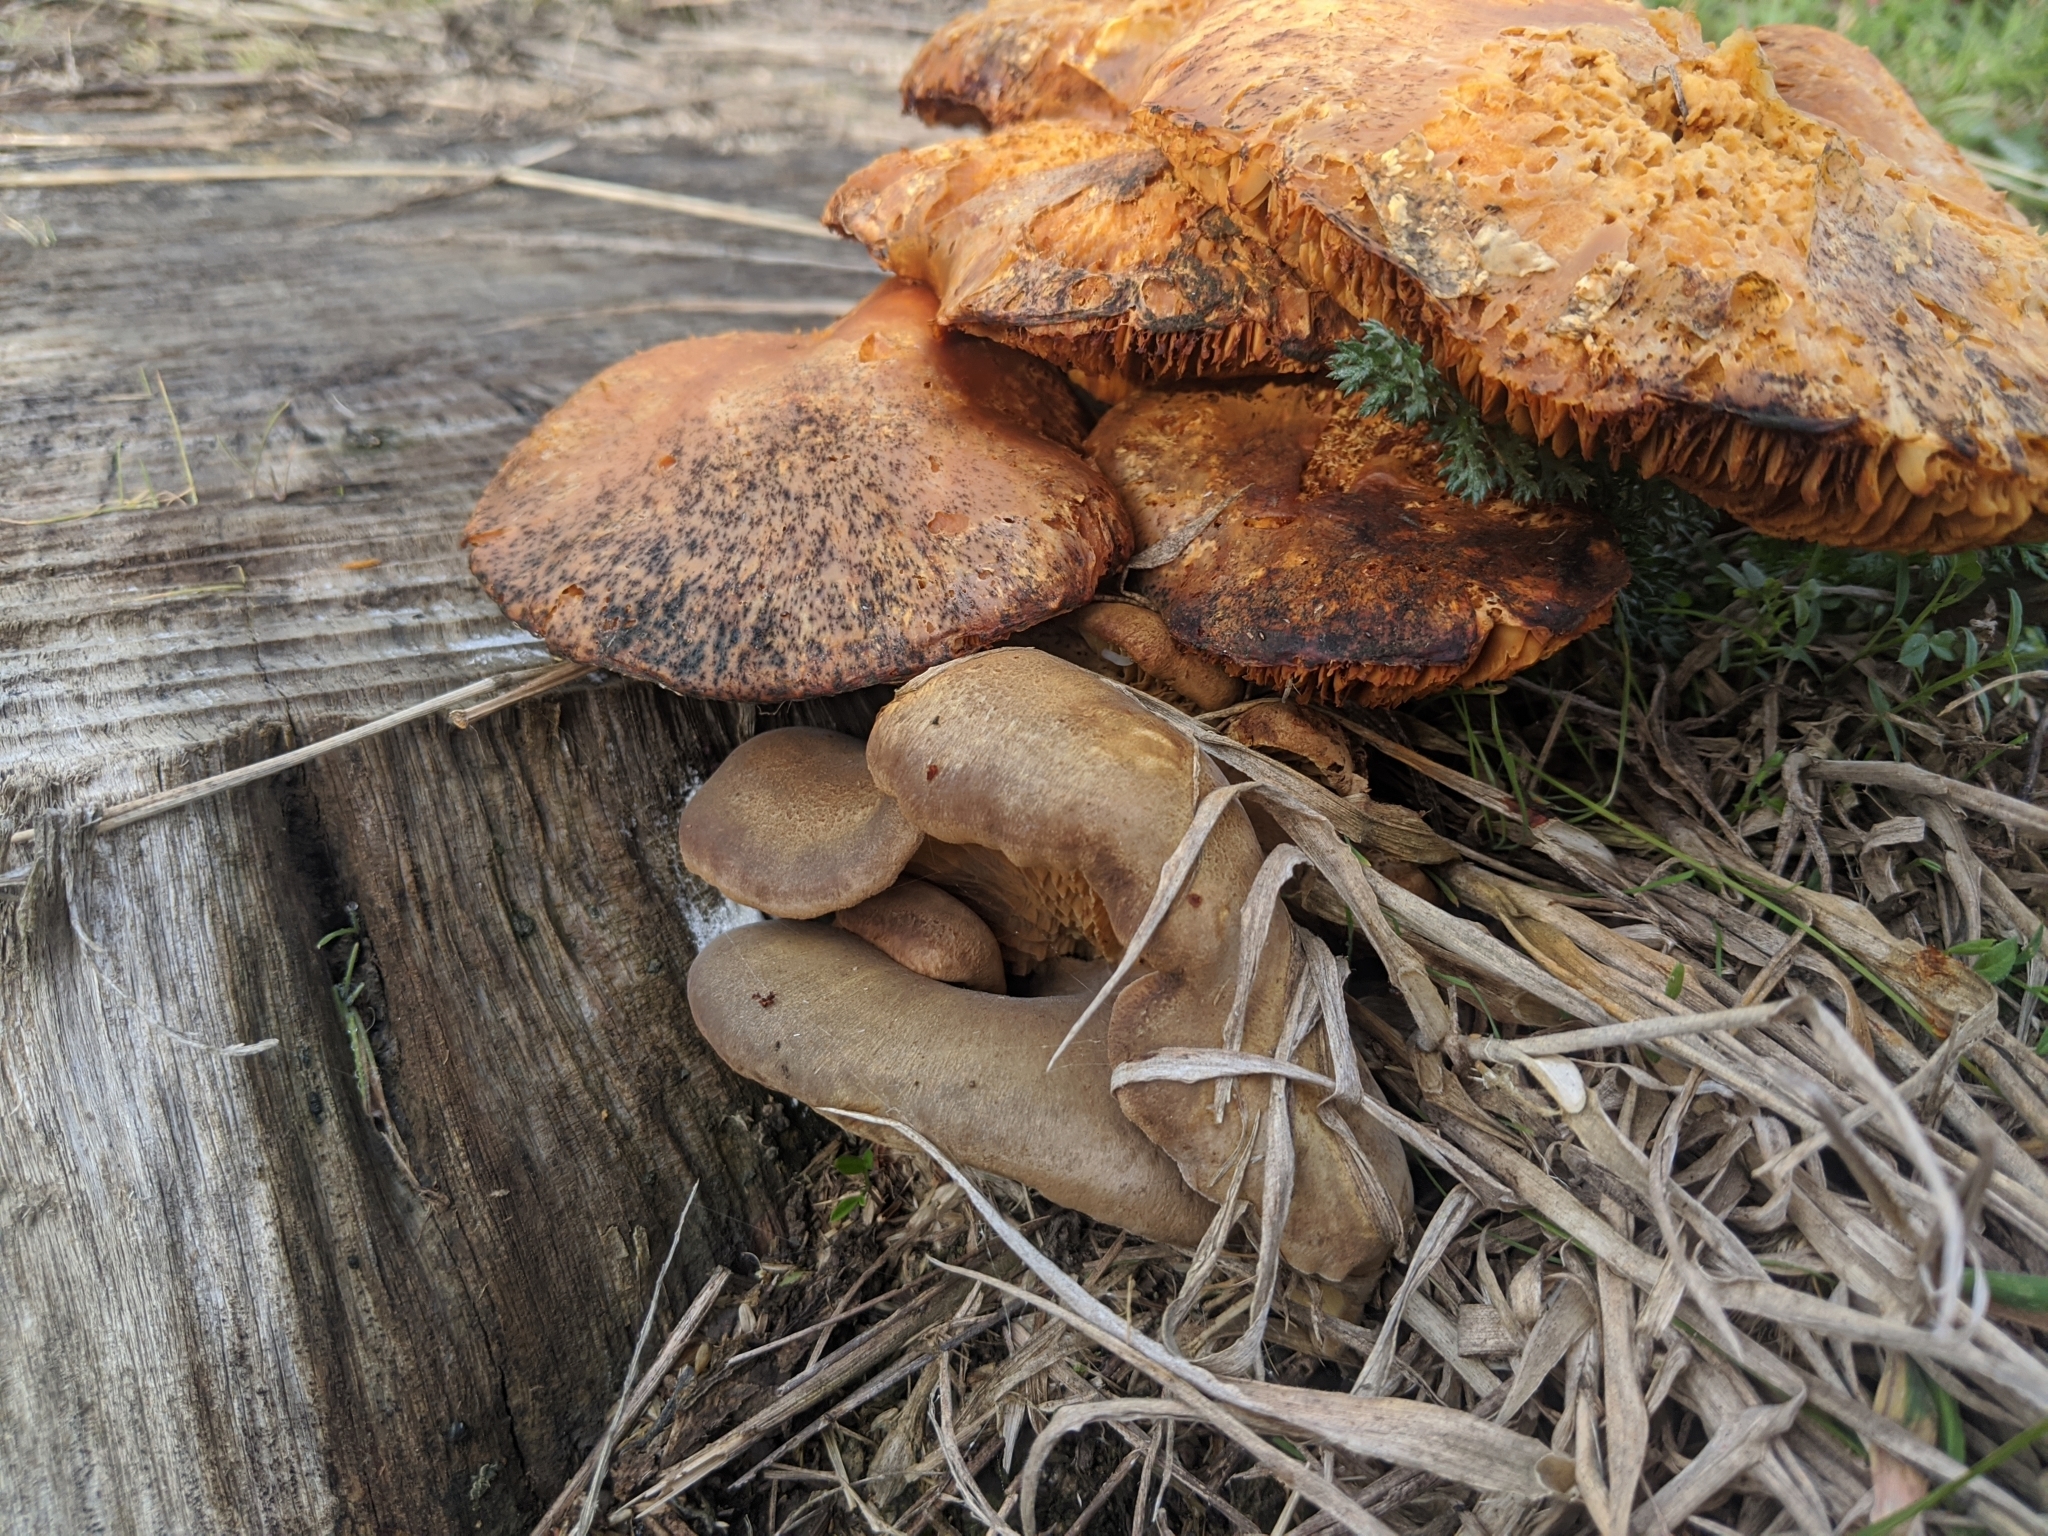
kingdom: Fungi
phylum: Basidiomycota
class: Agaricomycetes
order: Boletales
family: Tapinellaceae
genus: Tapinella
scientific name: Tapinella panuoides
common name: Oyster rollrim
